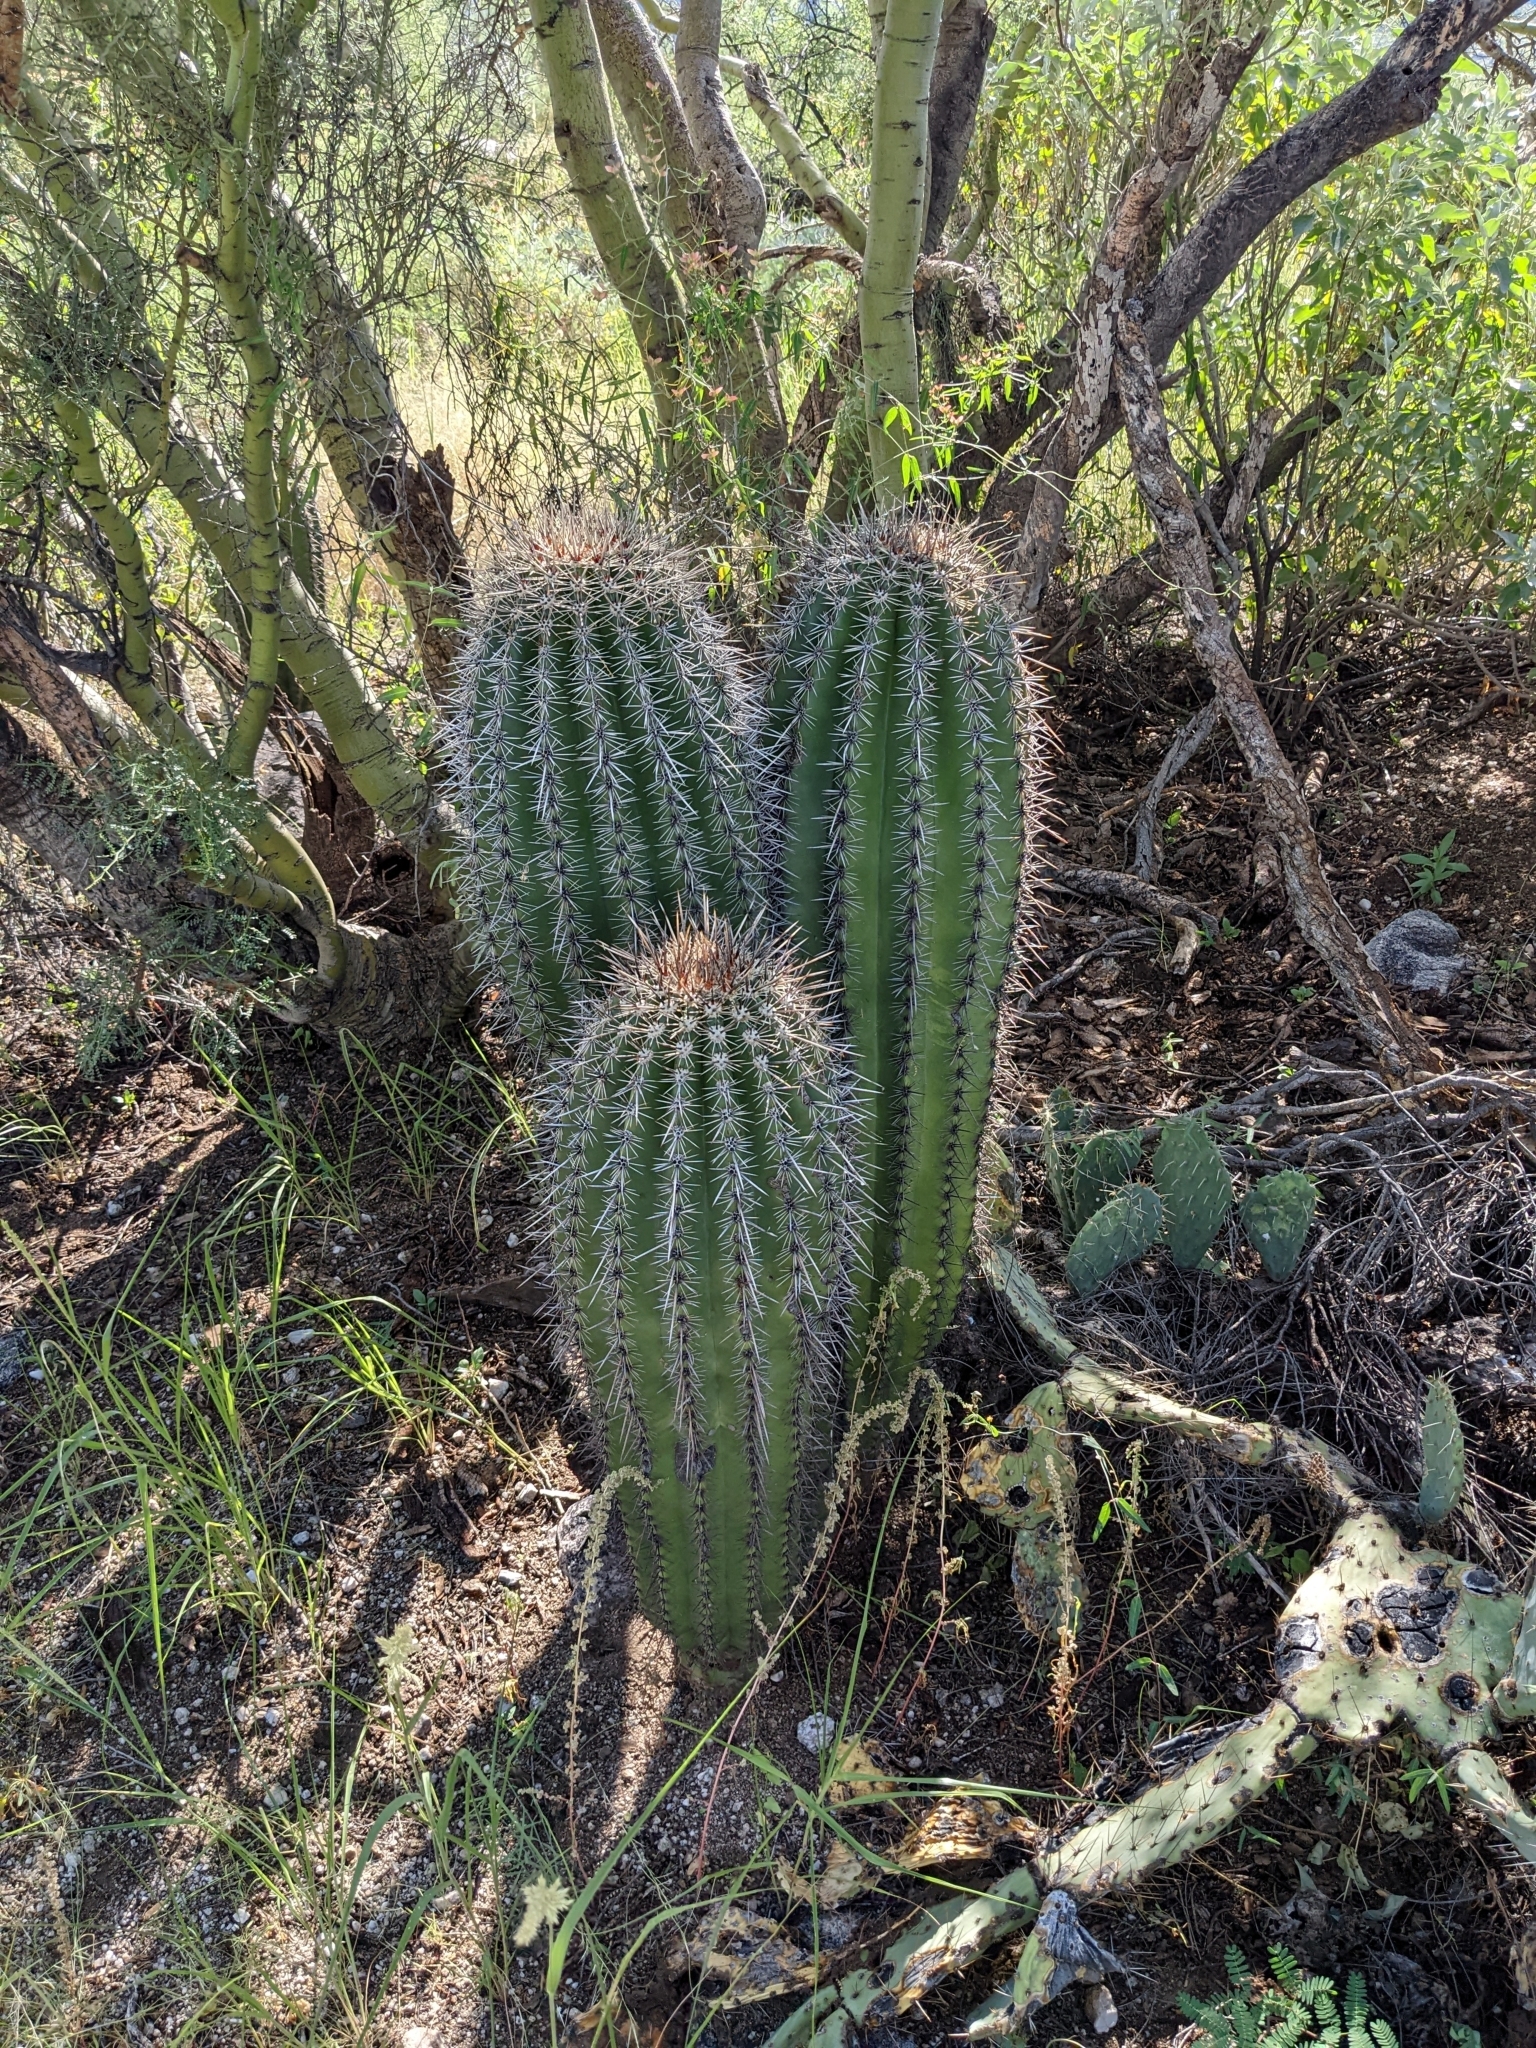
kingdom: Plantae
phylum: Tracheophyta
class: Magnoliopsida
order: Caryophyllales
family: Cactaceae
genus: Carnegiea
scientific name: Carnegiea gigantea
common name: Saguaro
